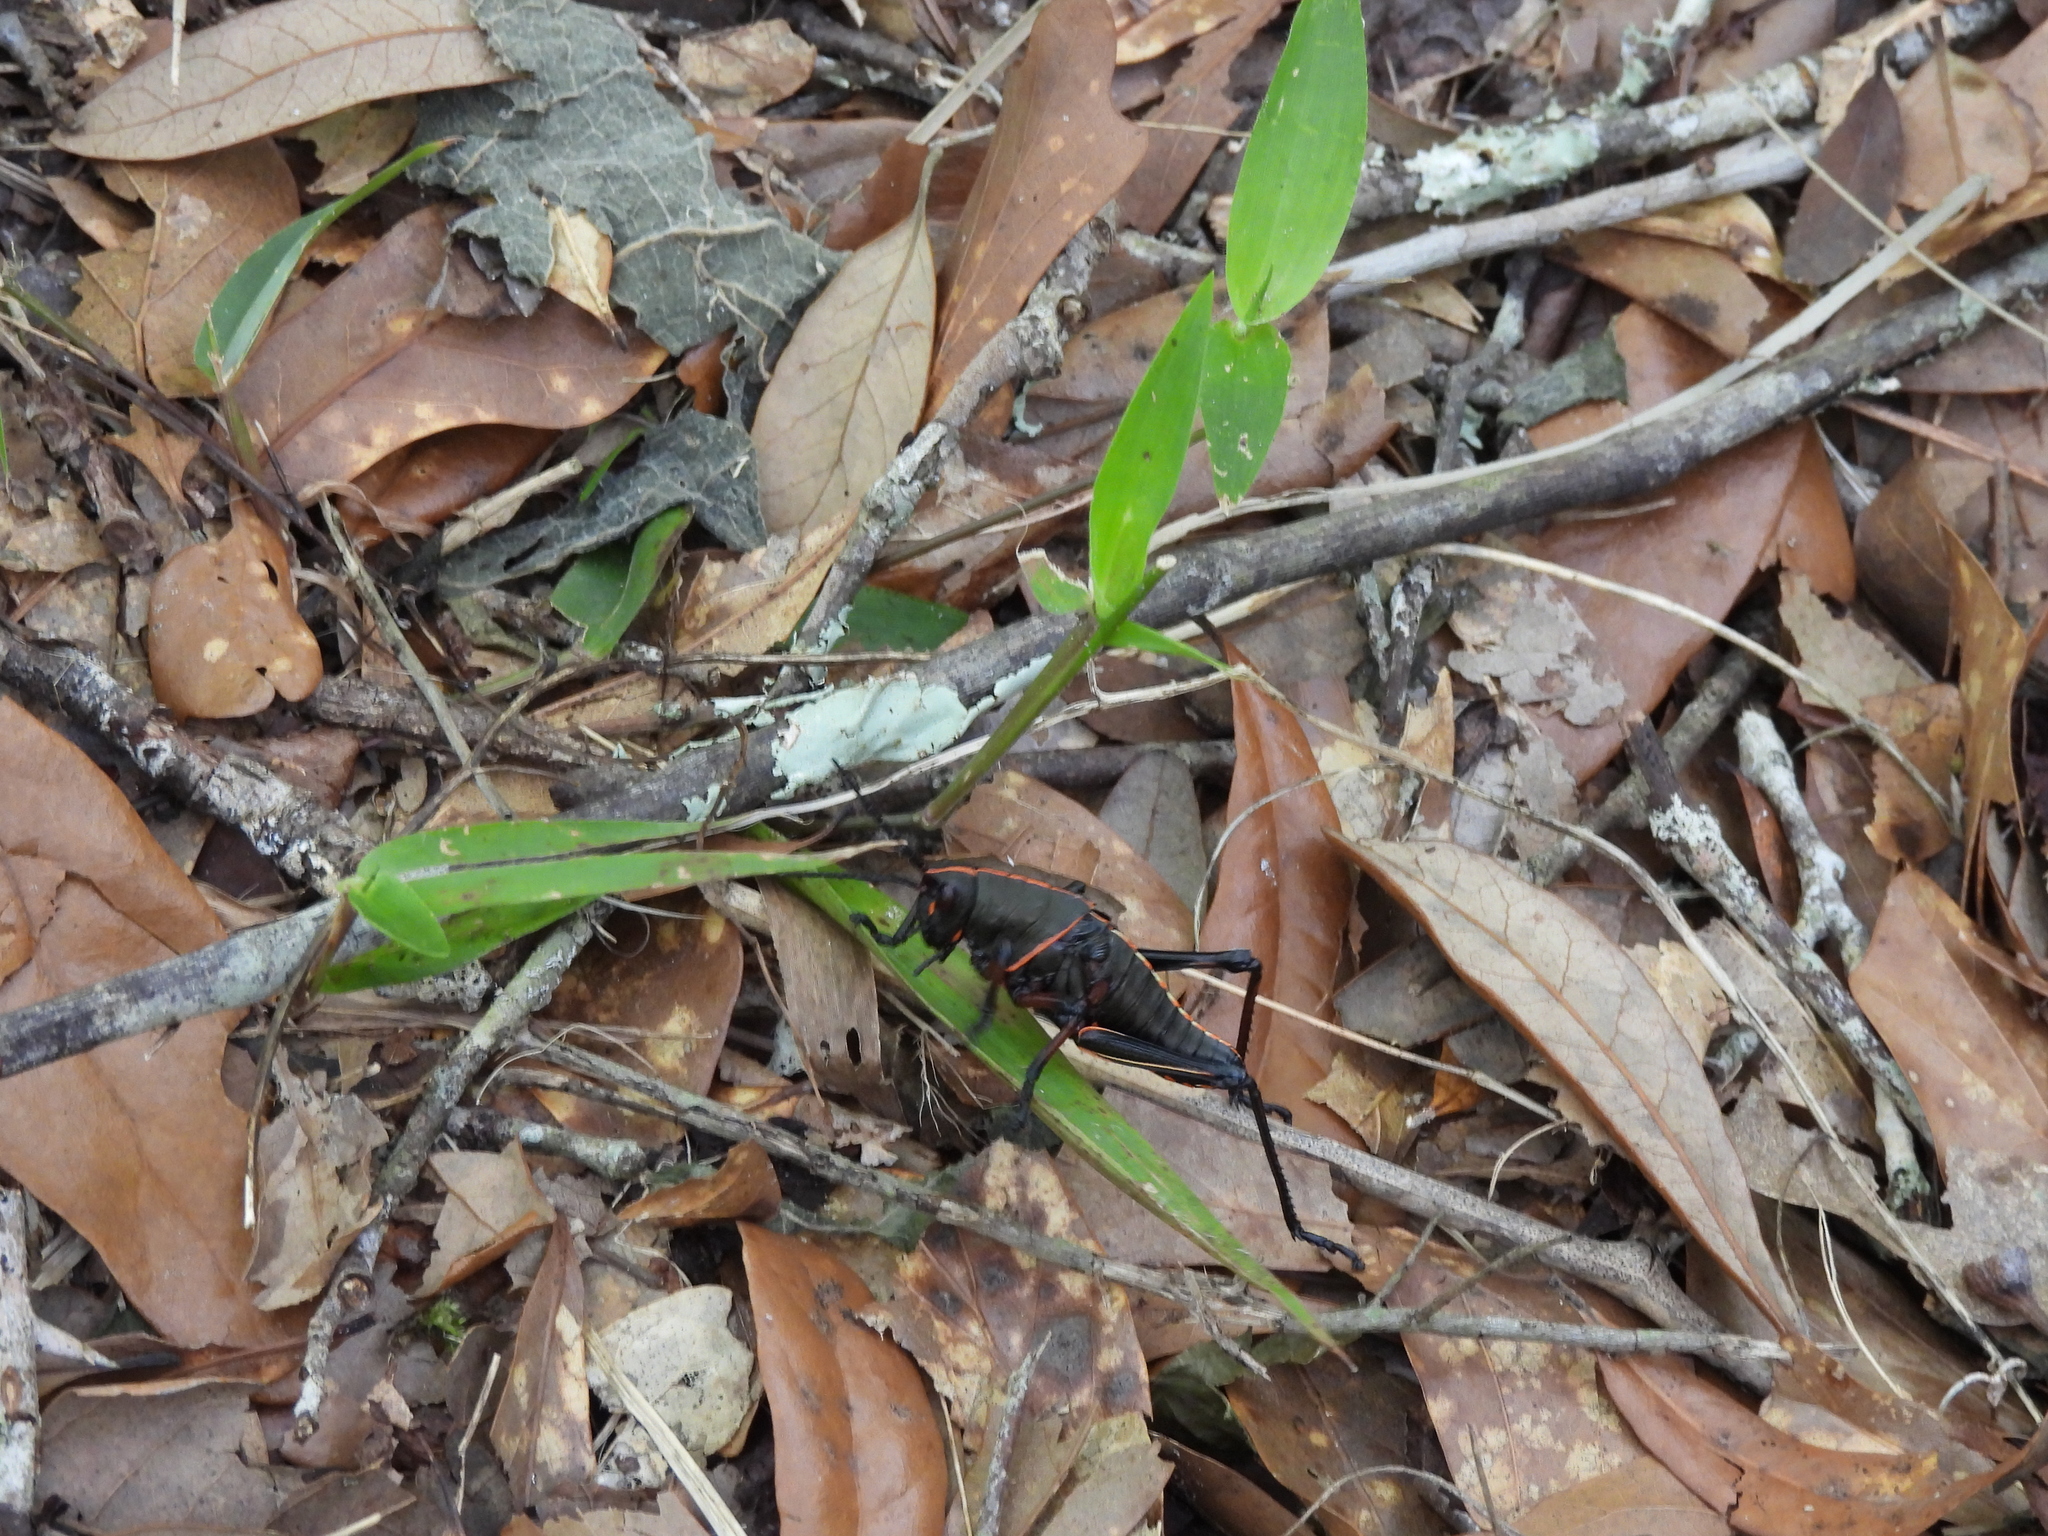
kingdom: Animalia
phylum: Arthropoda
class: Insecta
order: Orthoptera
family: Romaleidae
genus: Romalea
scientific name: Romalea microptera
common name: Eastern lubber grasshopper
